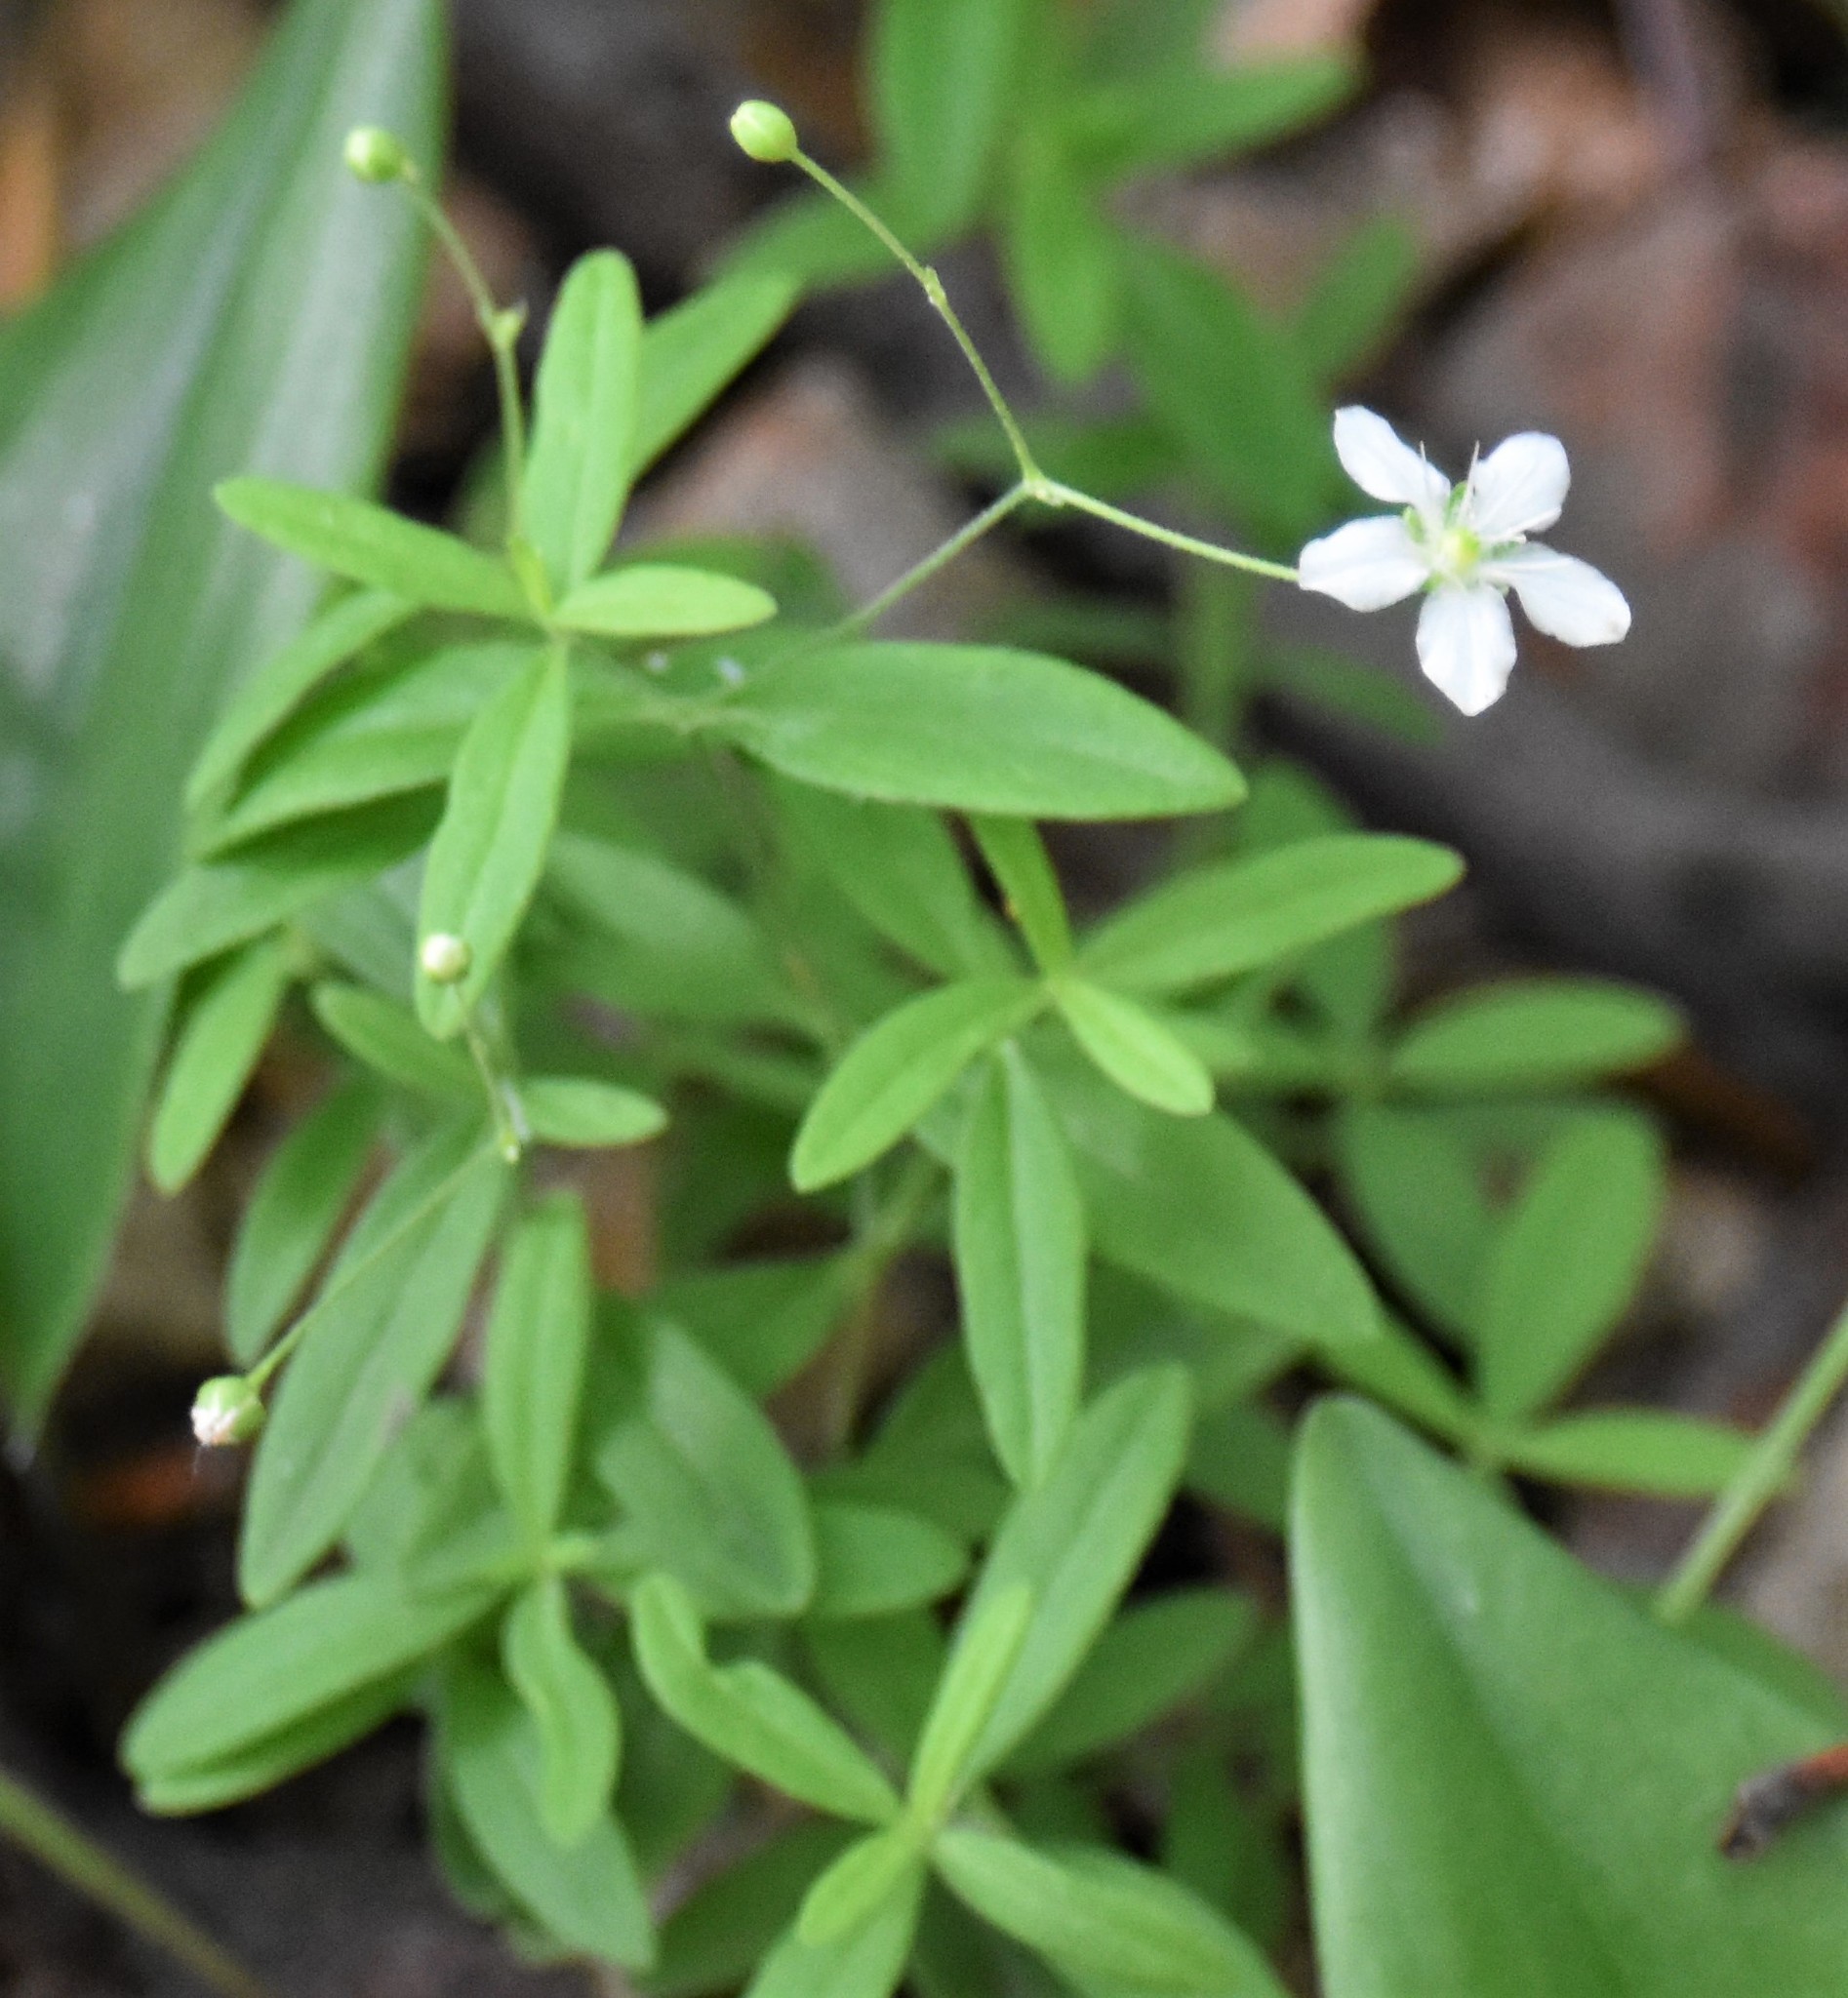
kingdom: Plantae
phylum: Tracheophyta
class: Magnoliopsida
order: Caryophyllales
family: Caryophyllaceae
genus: Moehringia
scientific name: Moehringia lateriflora
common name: Blunt-leaved sandwort
